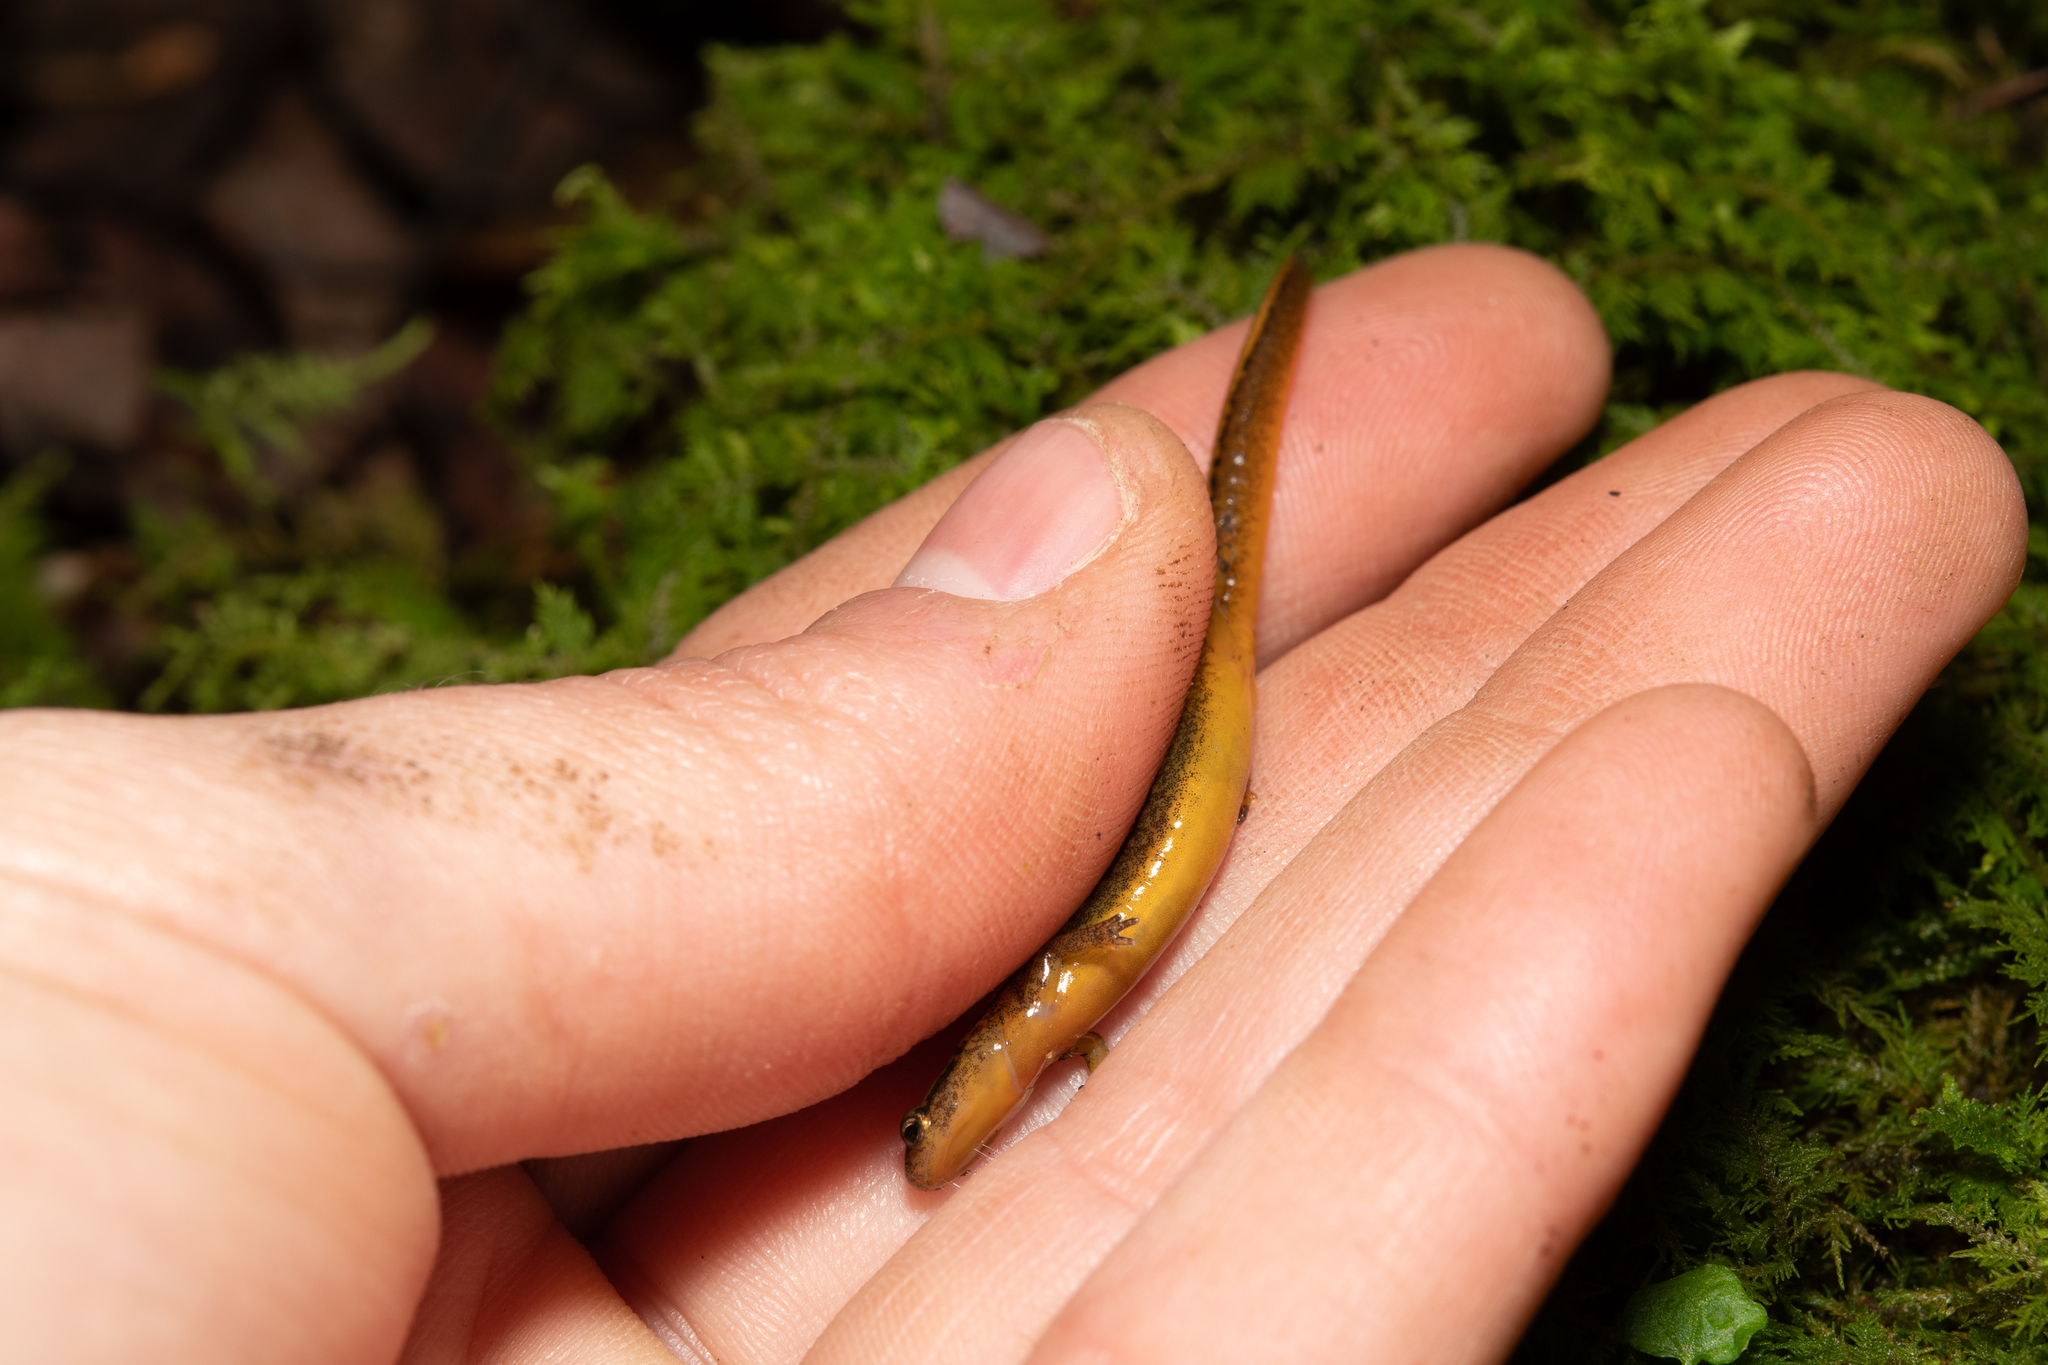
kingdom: Animalia
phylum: Chordata
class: Amphibia
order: Caudata
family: Plethodontidae
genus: Eurycea
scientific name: Eurycea bislineata
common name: Northern two-lined salamander
